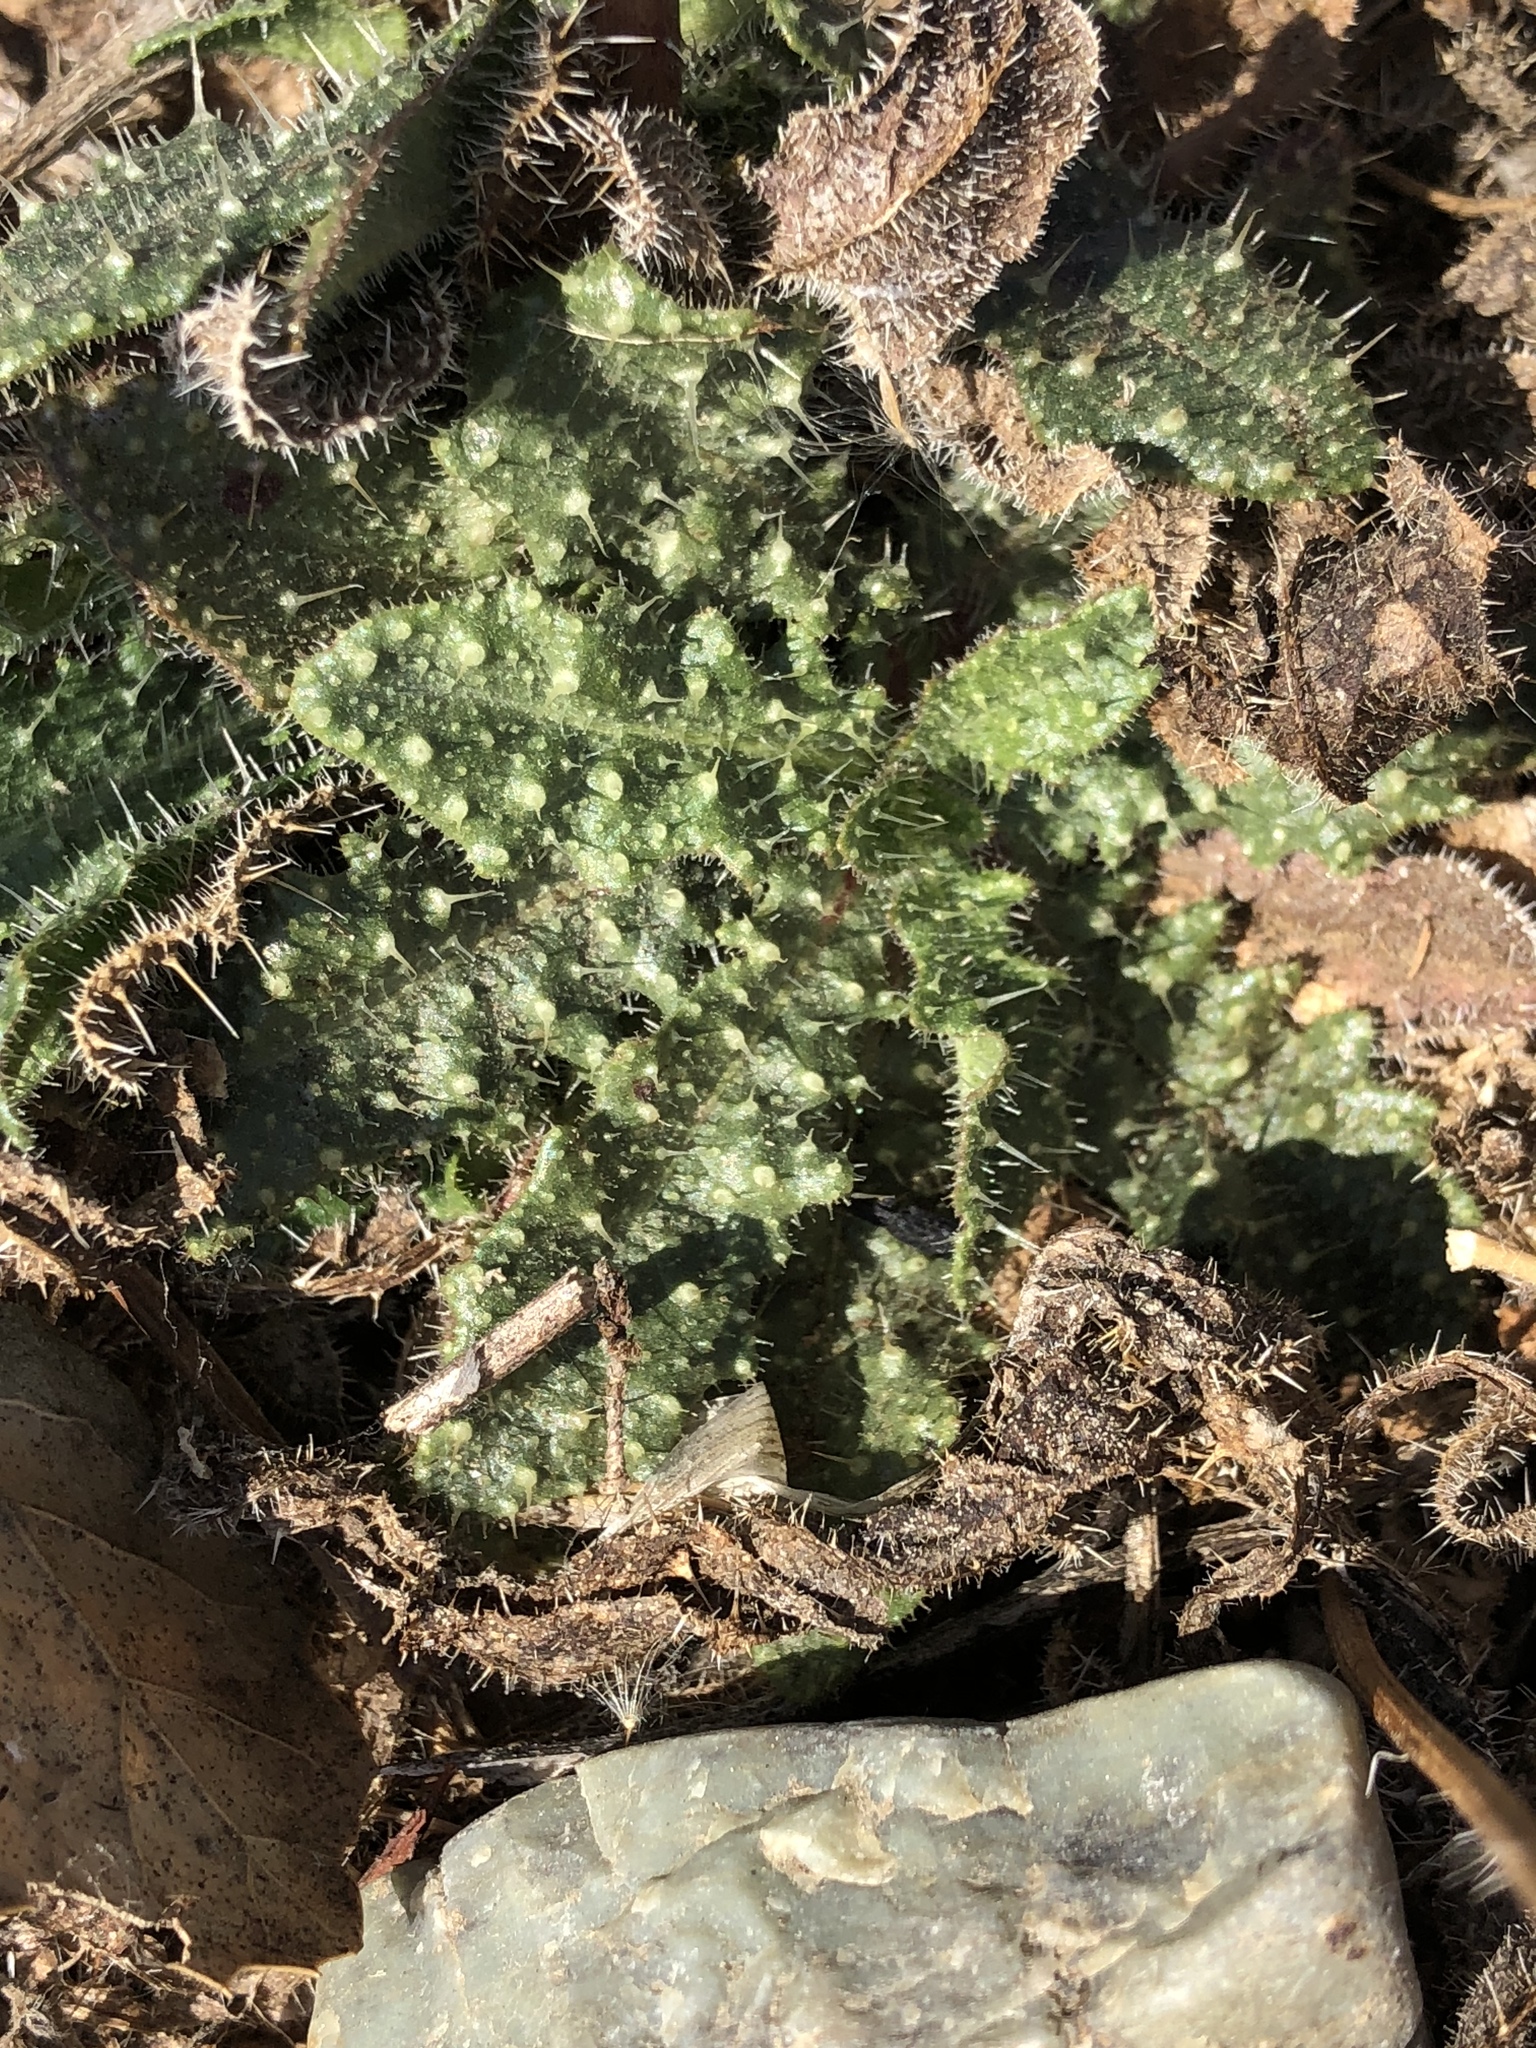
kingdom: Plantae
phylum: Tracheophyta
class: Magnoliopsida
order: Asterales
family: Asteraceae
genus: Helminthotheca
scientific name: Helminthotheca echioides
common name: Ox-tongue
